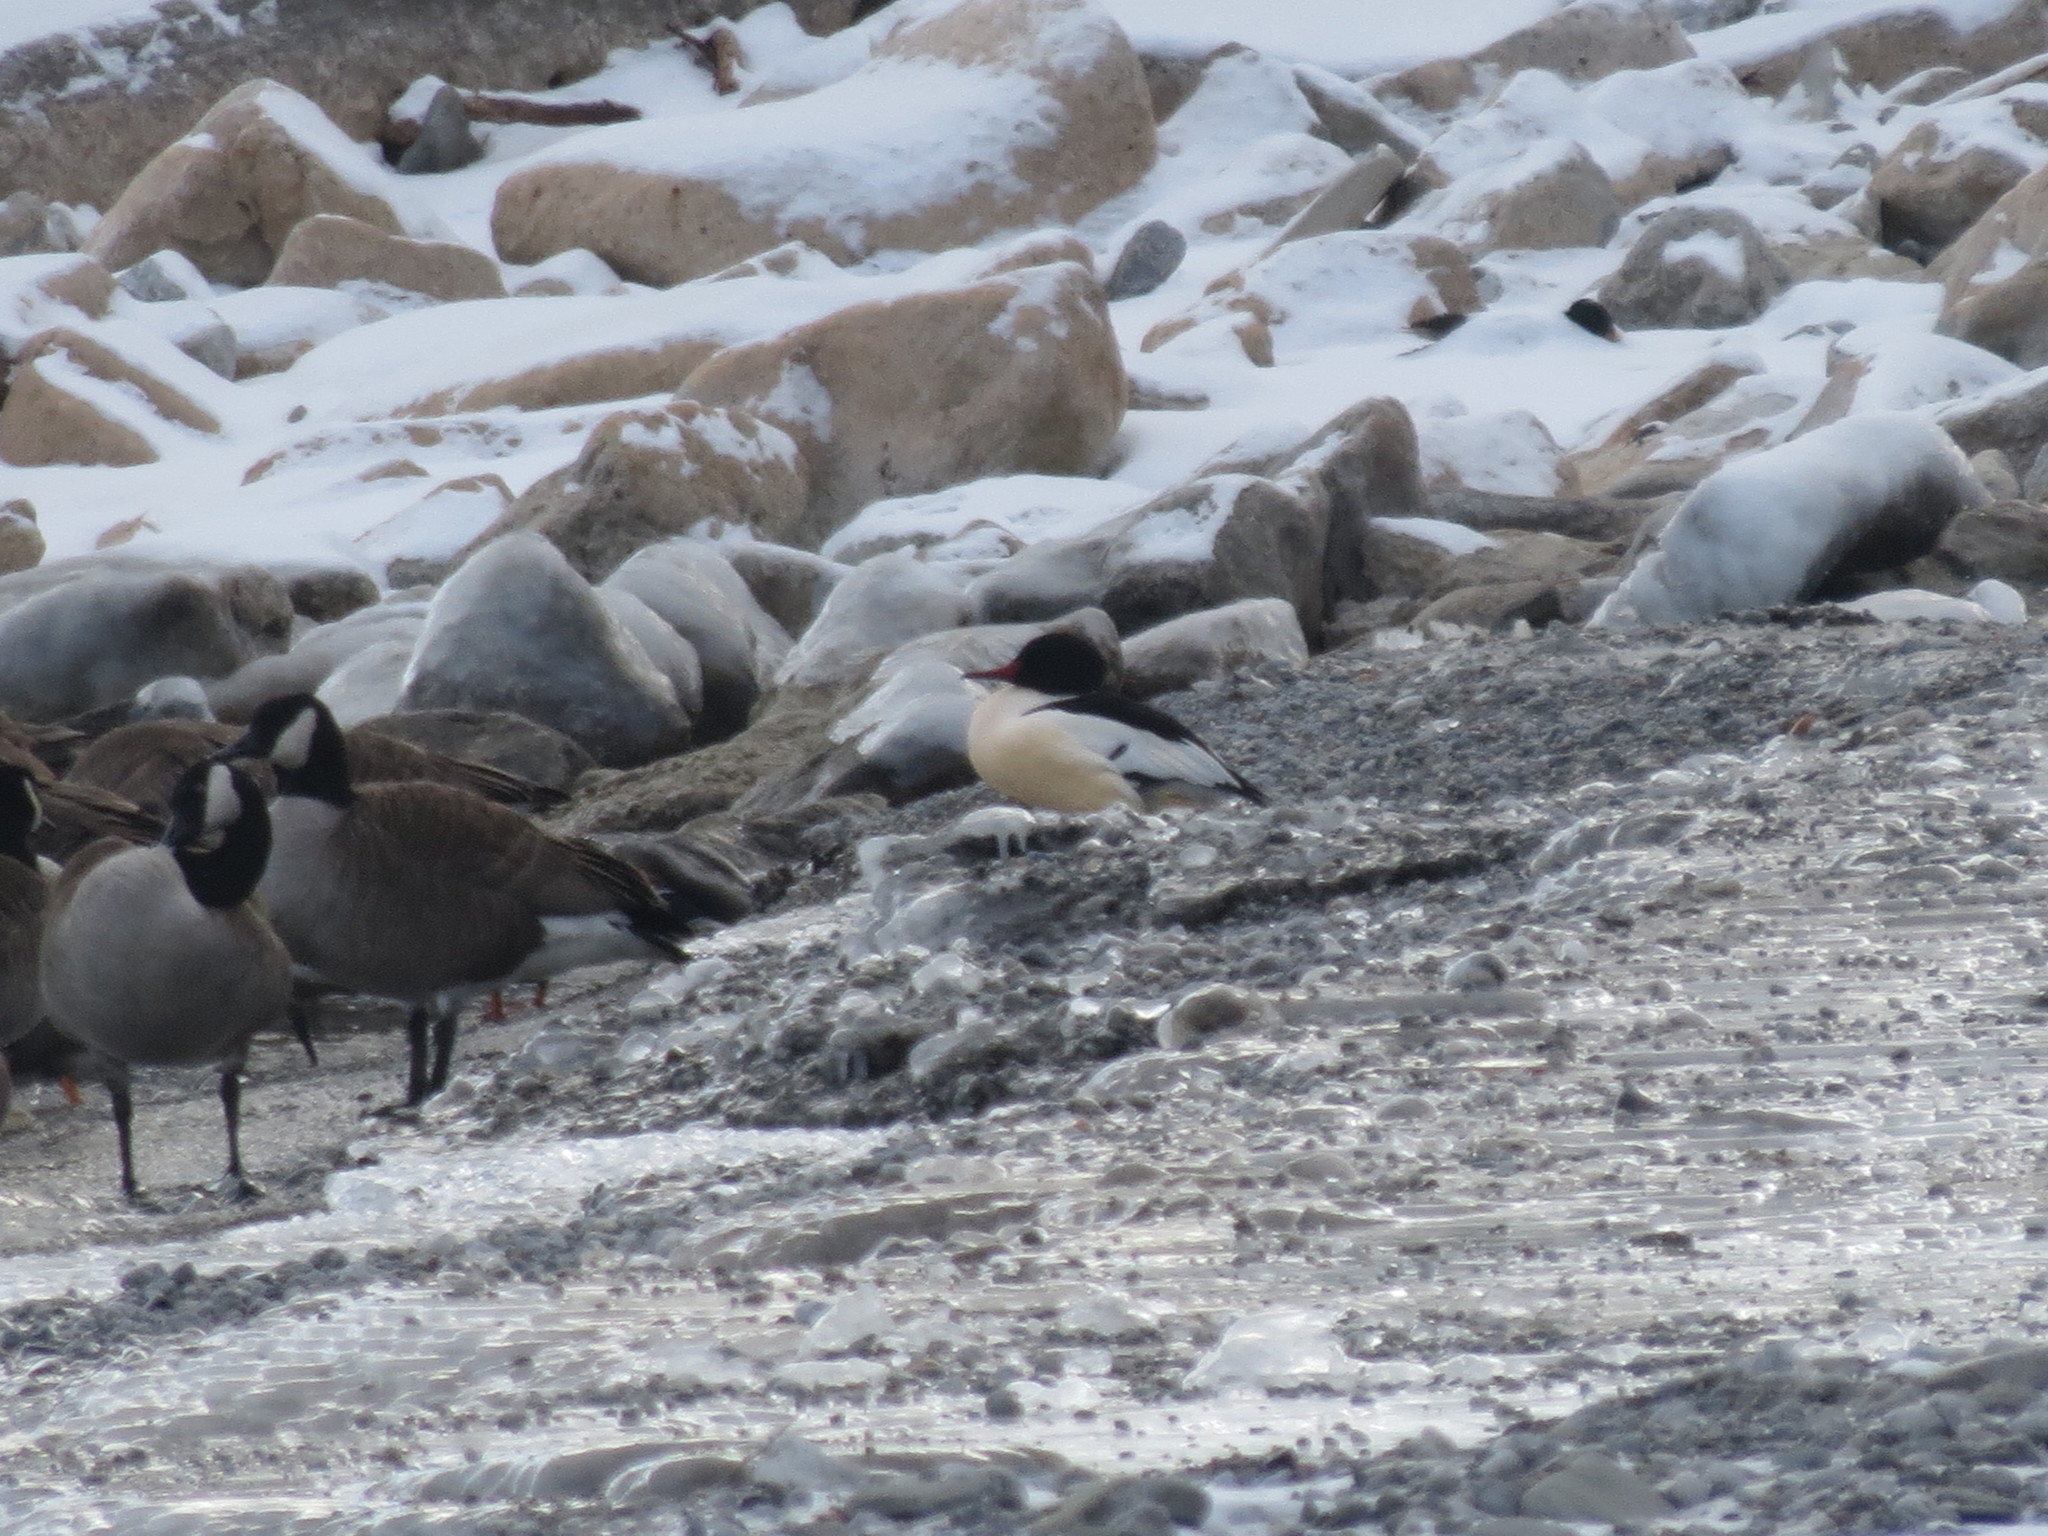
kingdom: Animalia
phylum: Chordata
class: Aves
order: Anseriformes
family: Anatidae
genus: Branta
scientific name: Branta canadensis
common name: Canada goose
